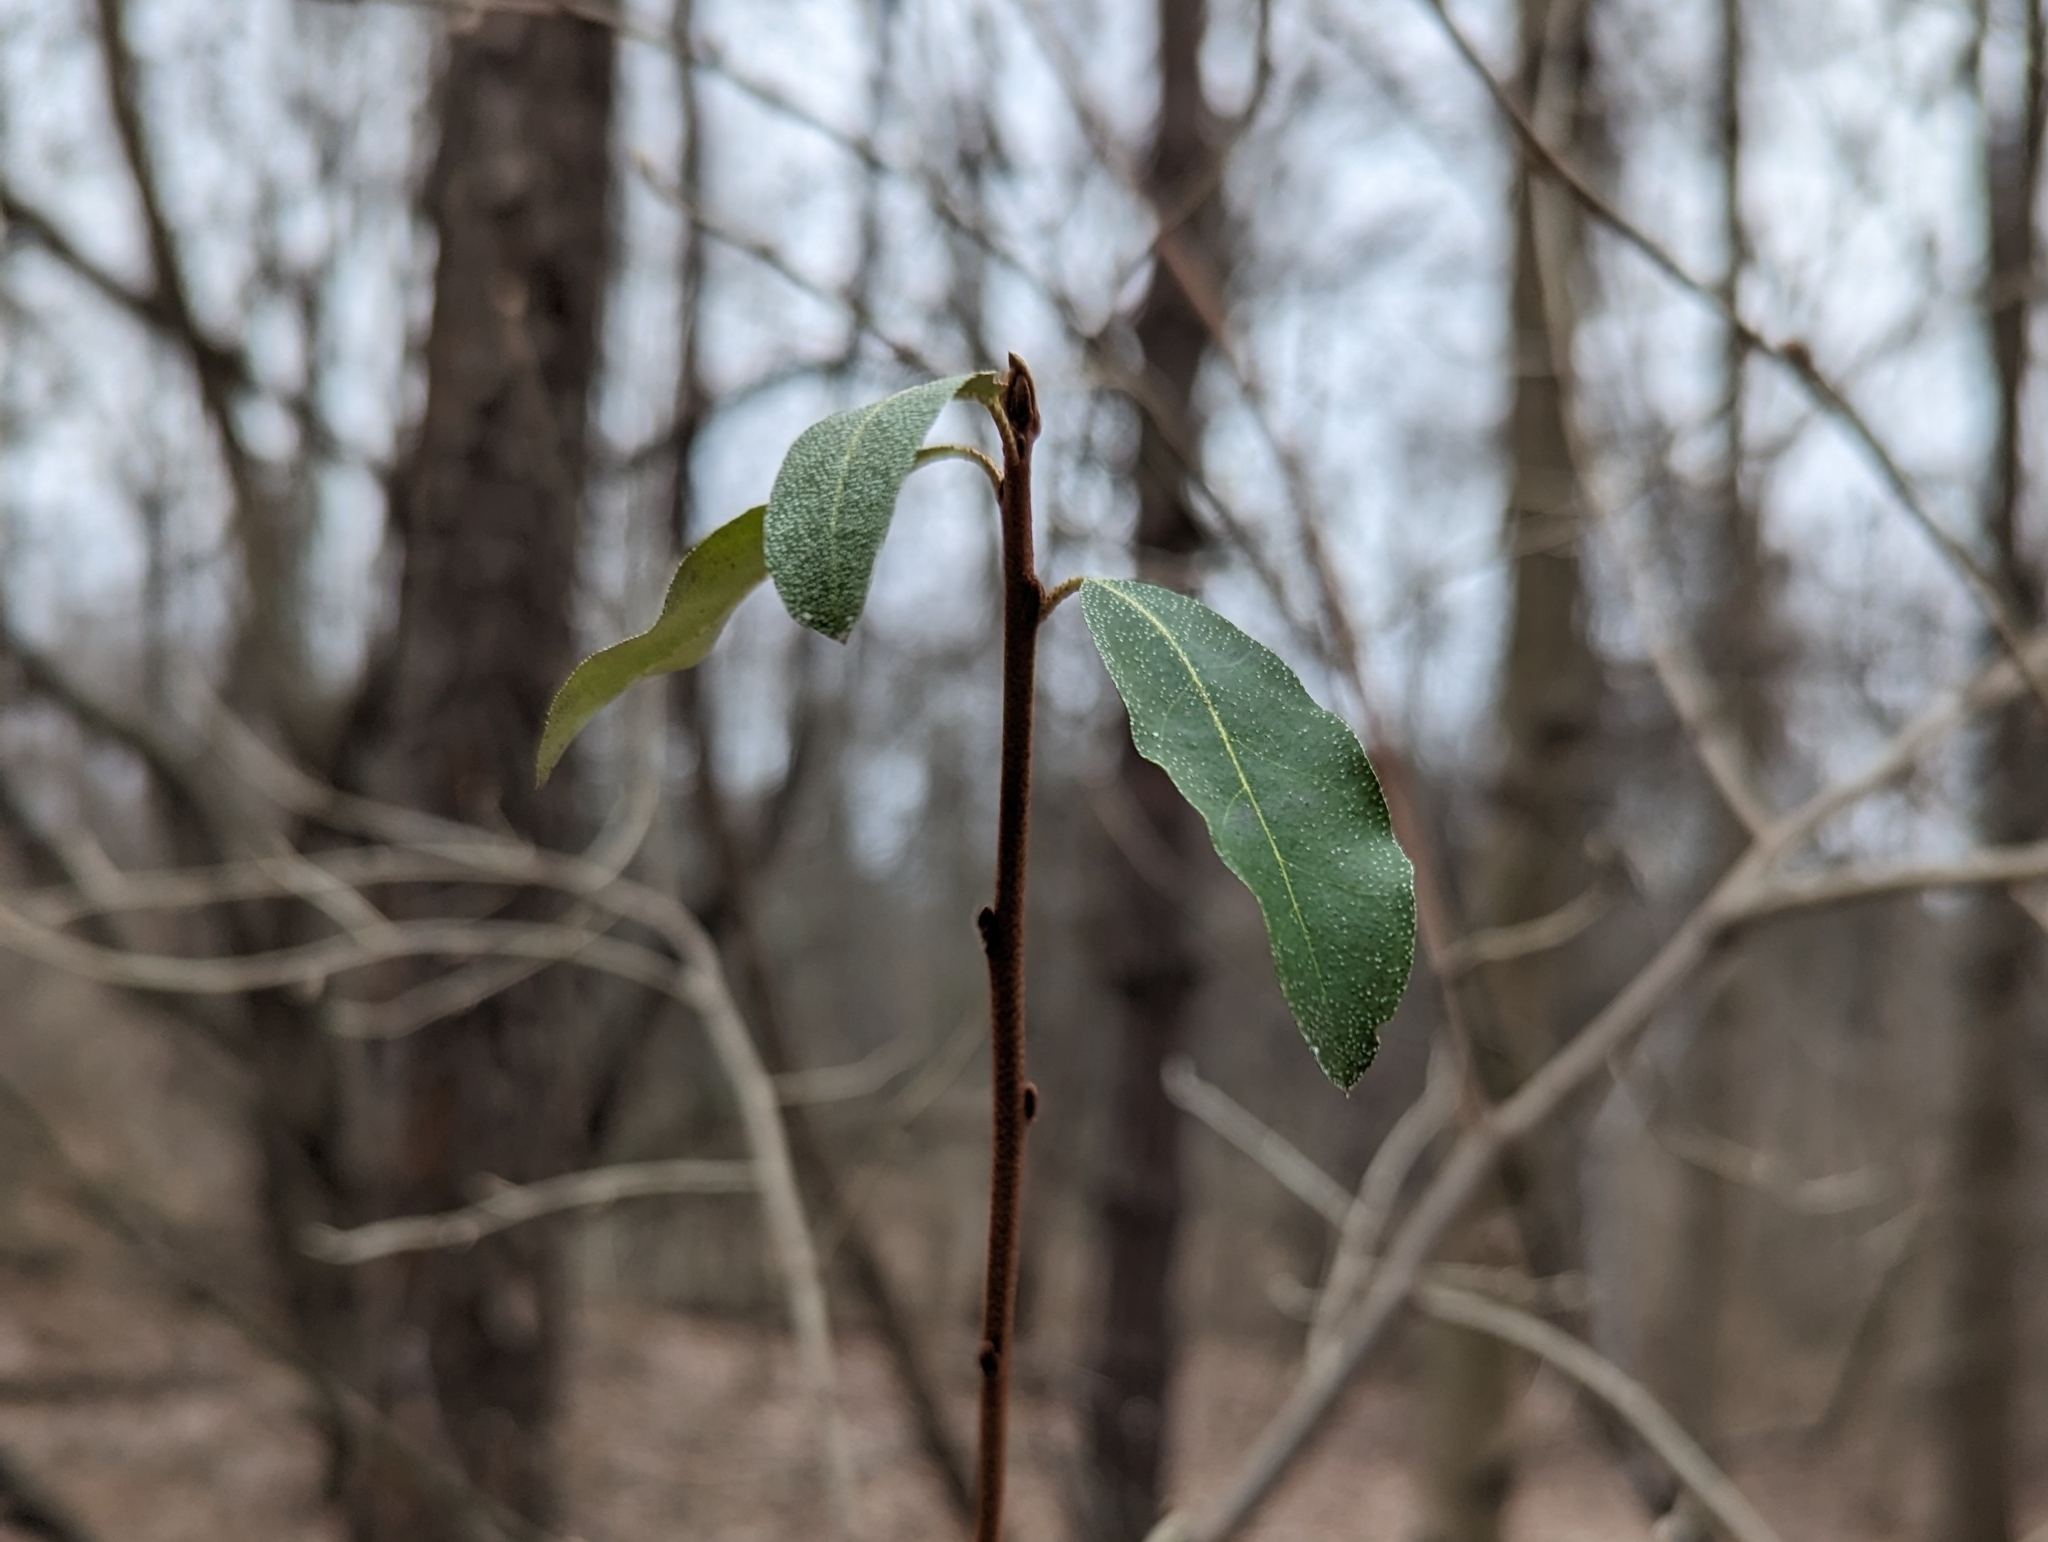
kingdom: Plantae
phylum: Tracheophyta
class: Magnoliopsida
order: Rosales
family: Elaeagnaceae
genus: Elaeagnus
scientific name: Elaeagnus umbellata
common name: Autumn olive
